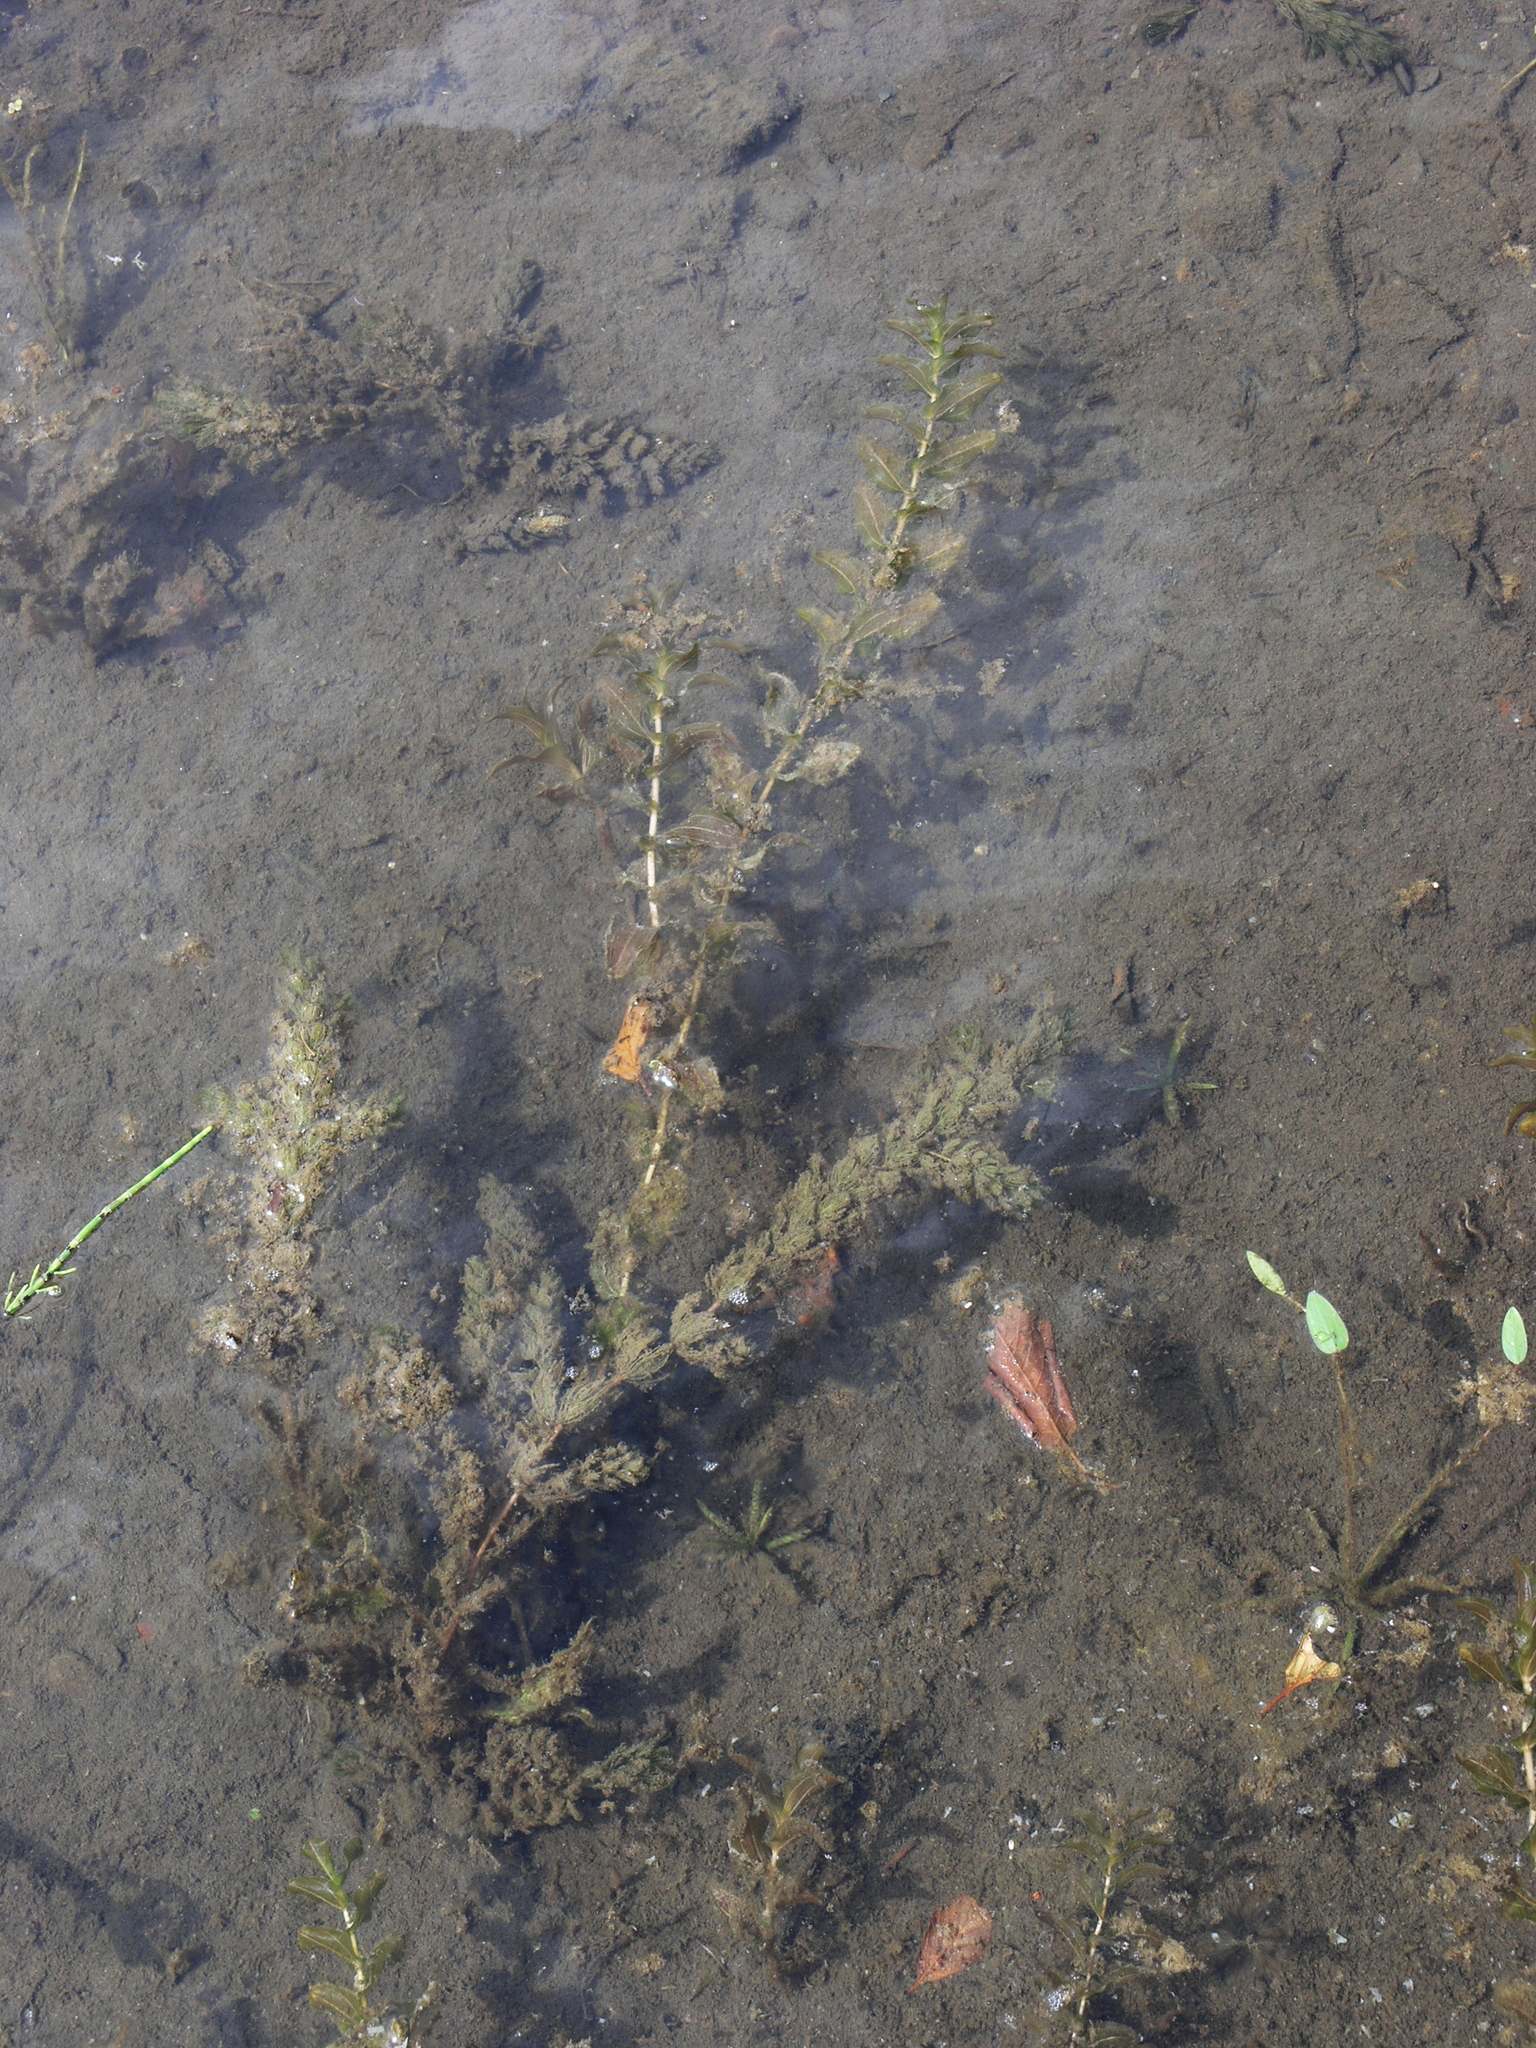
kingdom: Plantae
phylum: Tracheophyta
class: Liliopsida
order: Alismatales
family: Potamogetonaceae
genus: Potamogeton
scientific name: Potamogeton perfoliatus
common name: Perfoliate pondweed
